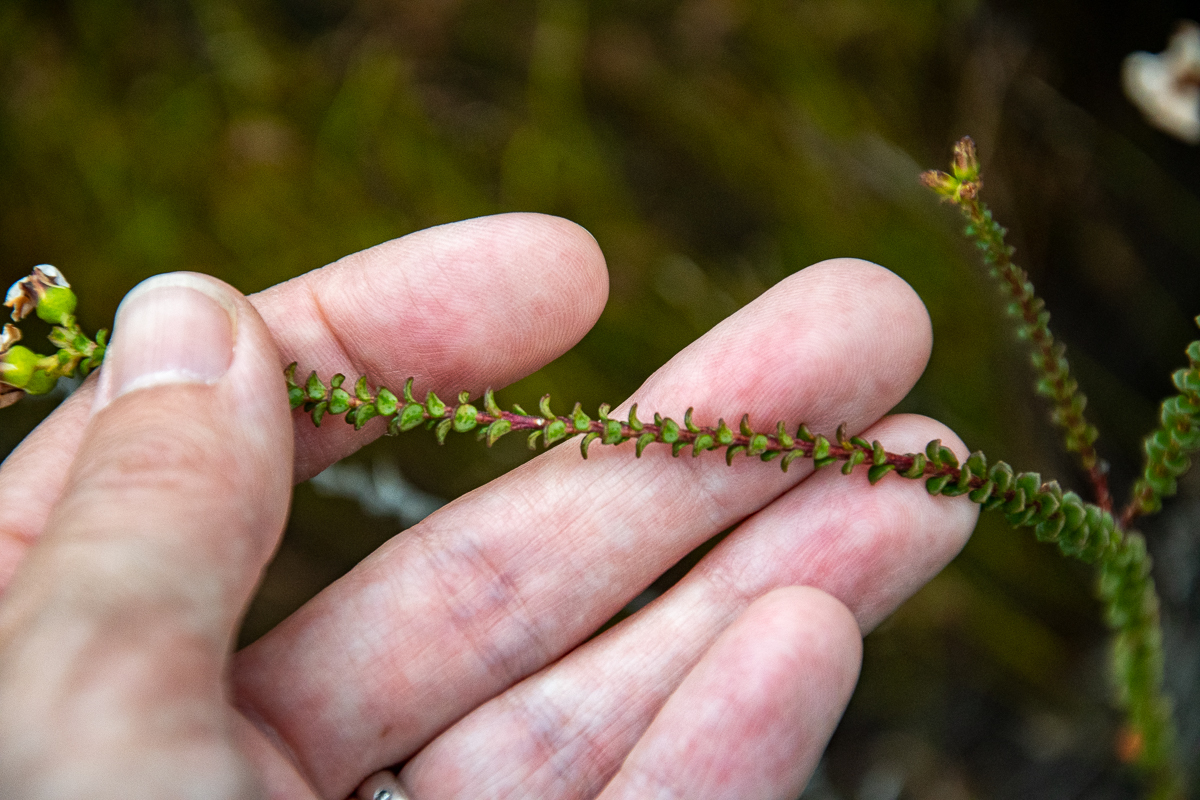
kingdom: Plantae
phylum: Tracheophyta
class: Magnoliopsida
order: Sapindales
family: Rutaceae
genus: Adenandra
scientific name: Adenandra brachyphylla
